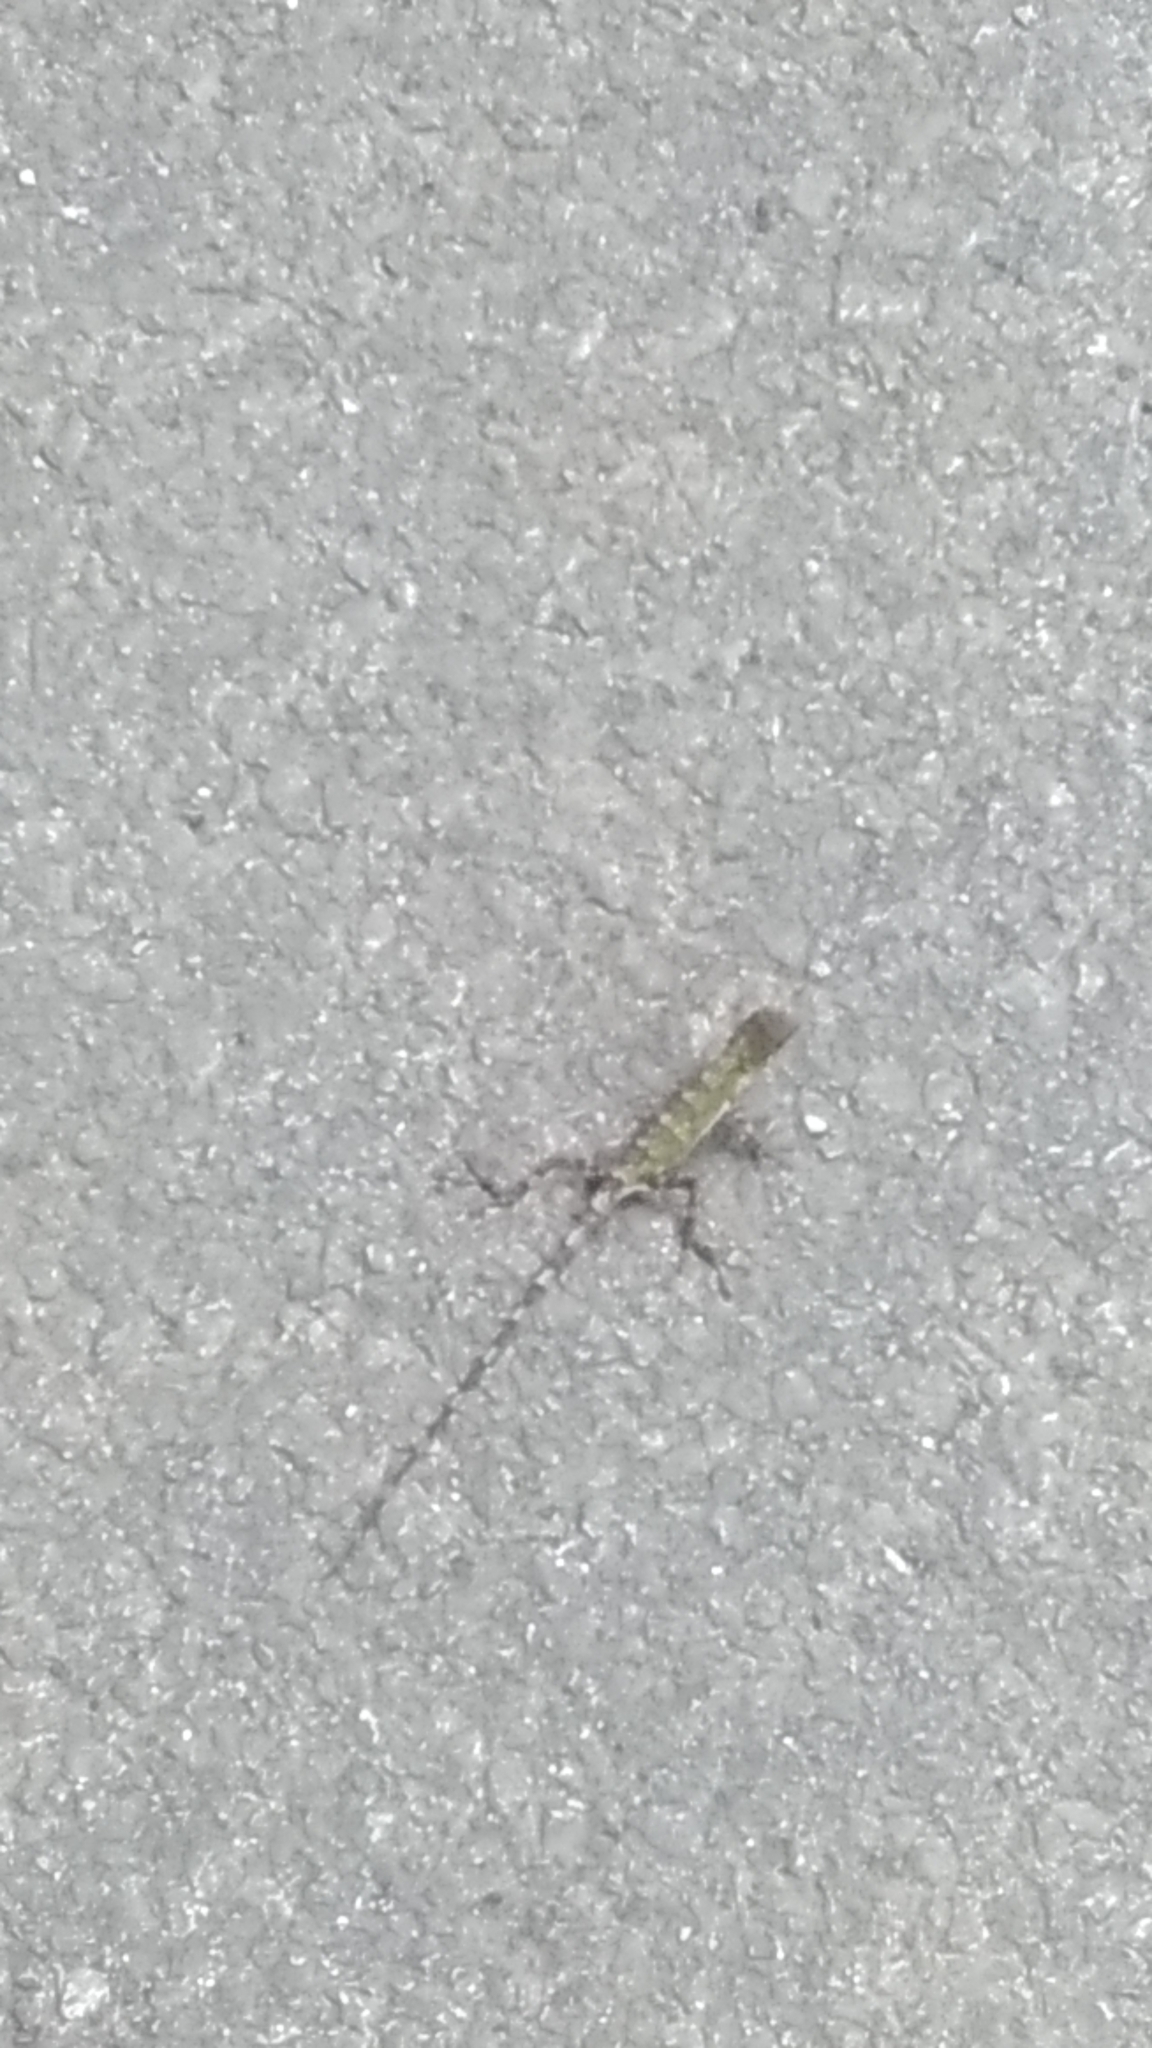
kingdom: Fungi
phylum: Basidiomycota
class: Agaricomycetes
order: Boletales
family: Diplocystidiaceae
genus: Diploderma
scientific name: Diploderma polygonatum
